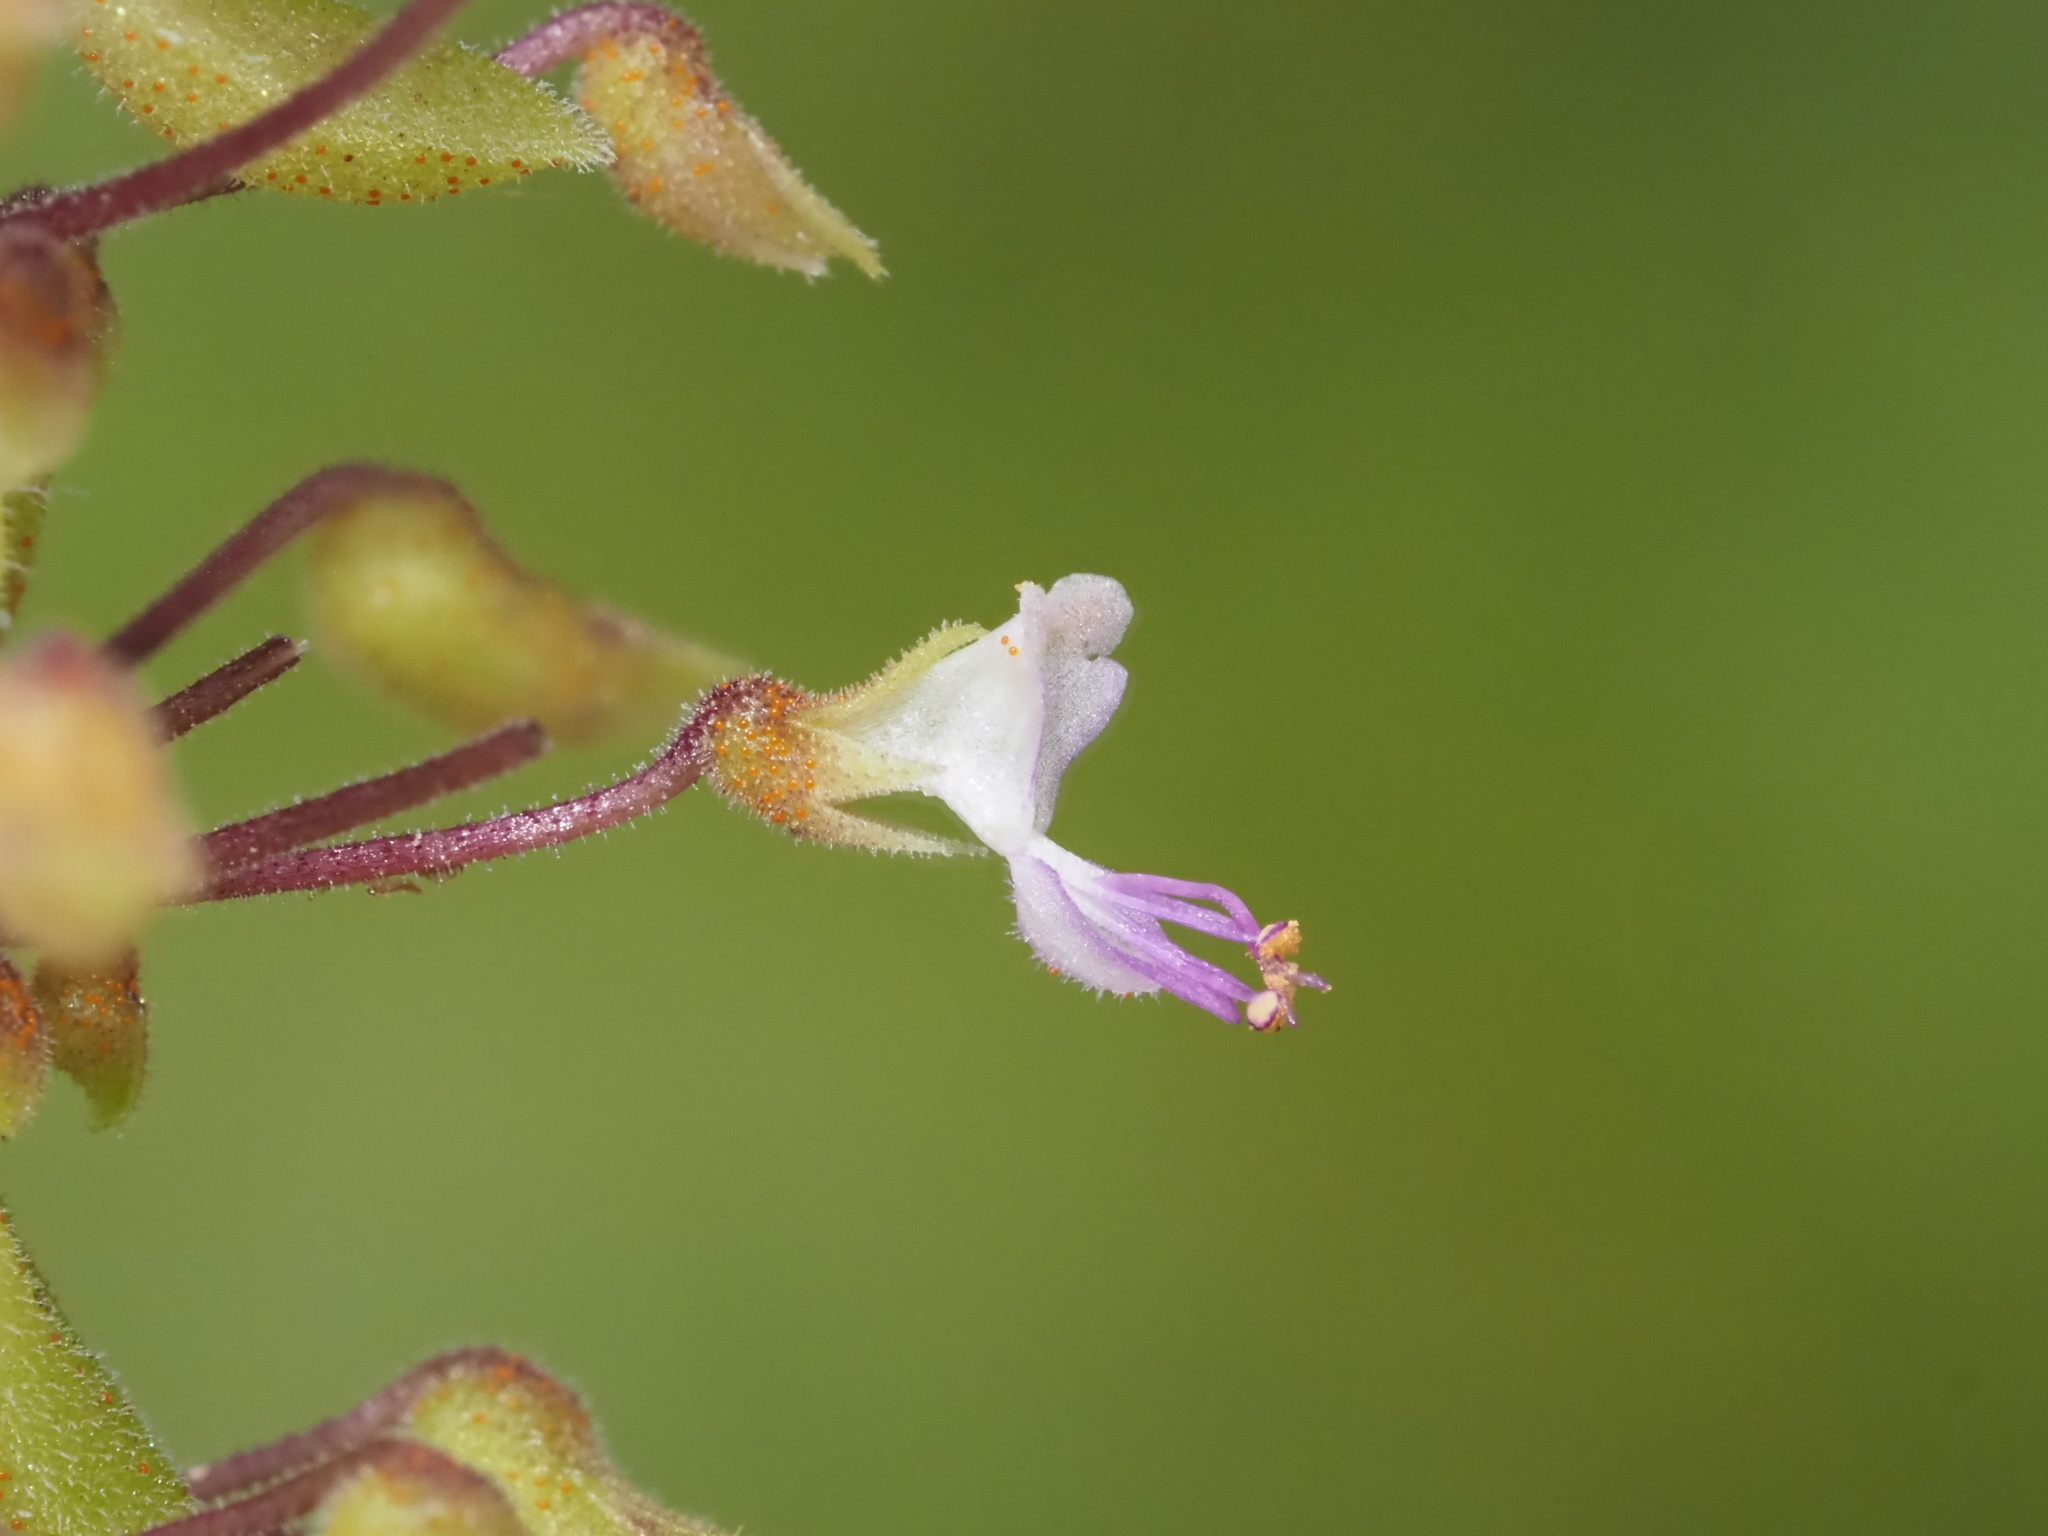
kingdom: Plantae
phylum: Tracheophyta
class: Magnoliopsida
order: Lamiales
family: Lamiaceae
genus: Coleus
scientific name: Coleus prostratus
